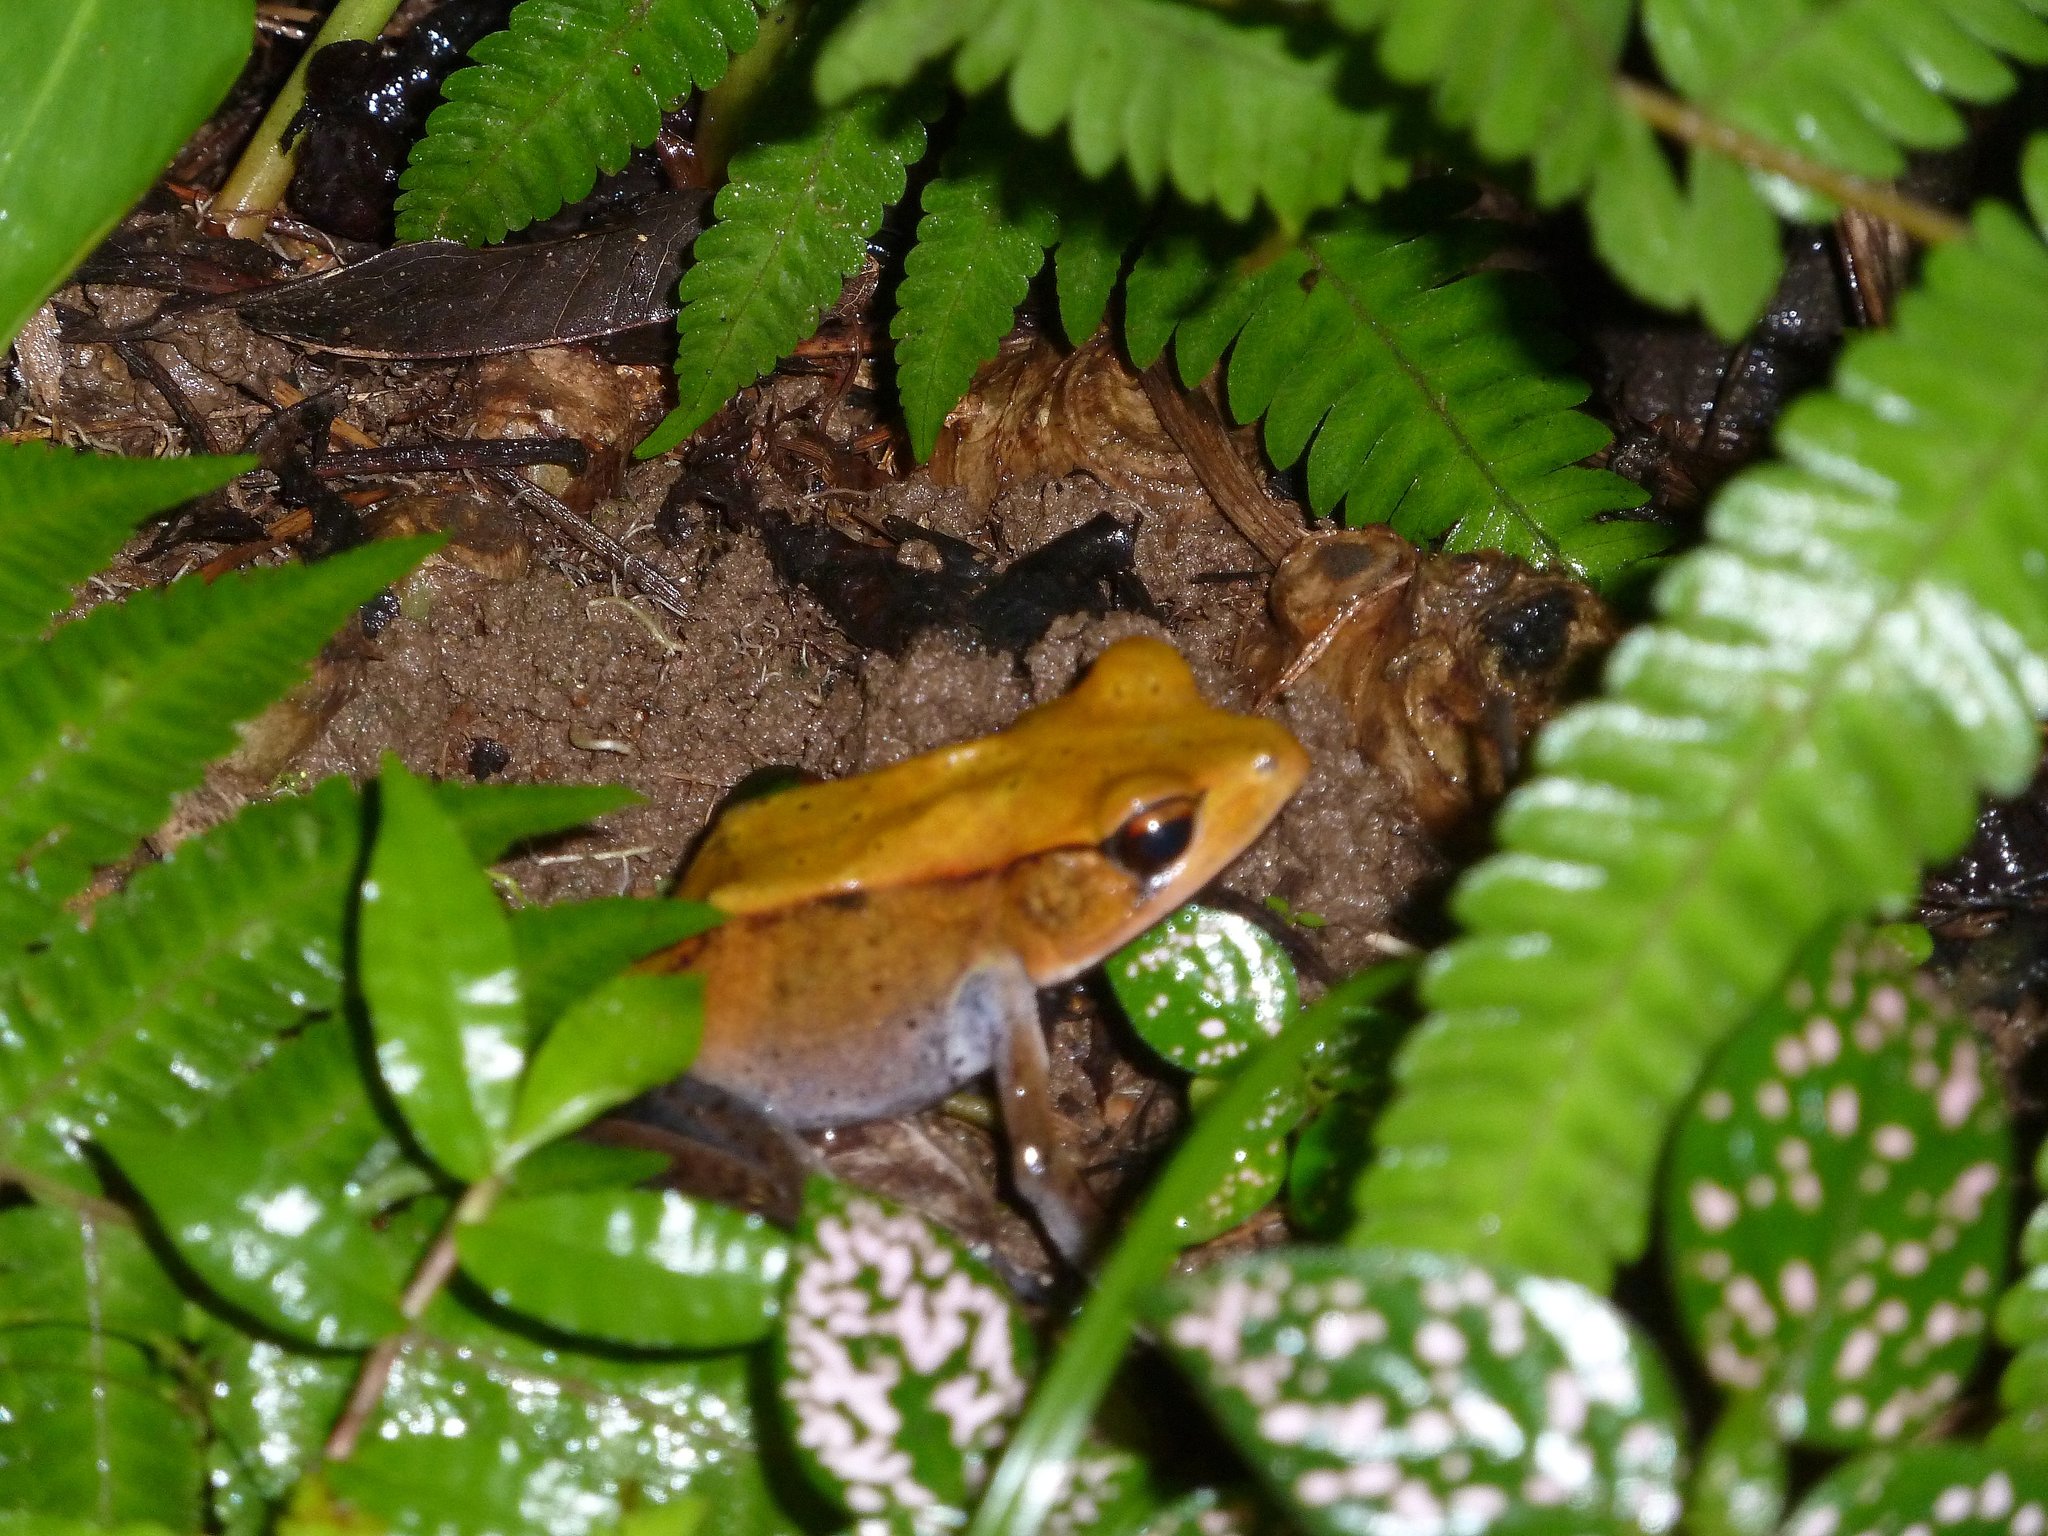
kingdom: Animalia
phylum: Chordata
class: Amphibia
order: Anura
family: Ranidae
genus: Clinotarsus
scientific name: Clinotarsus curtipes
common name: Bicoloured frog
